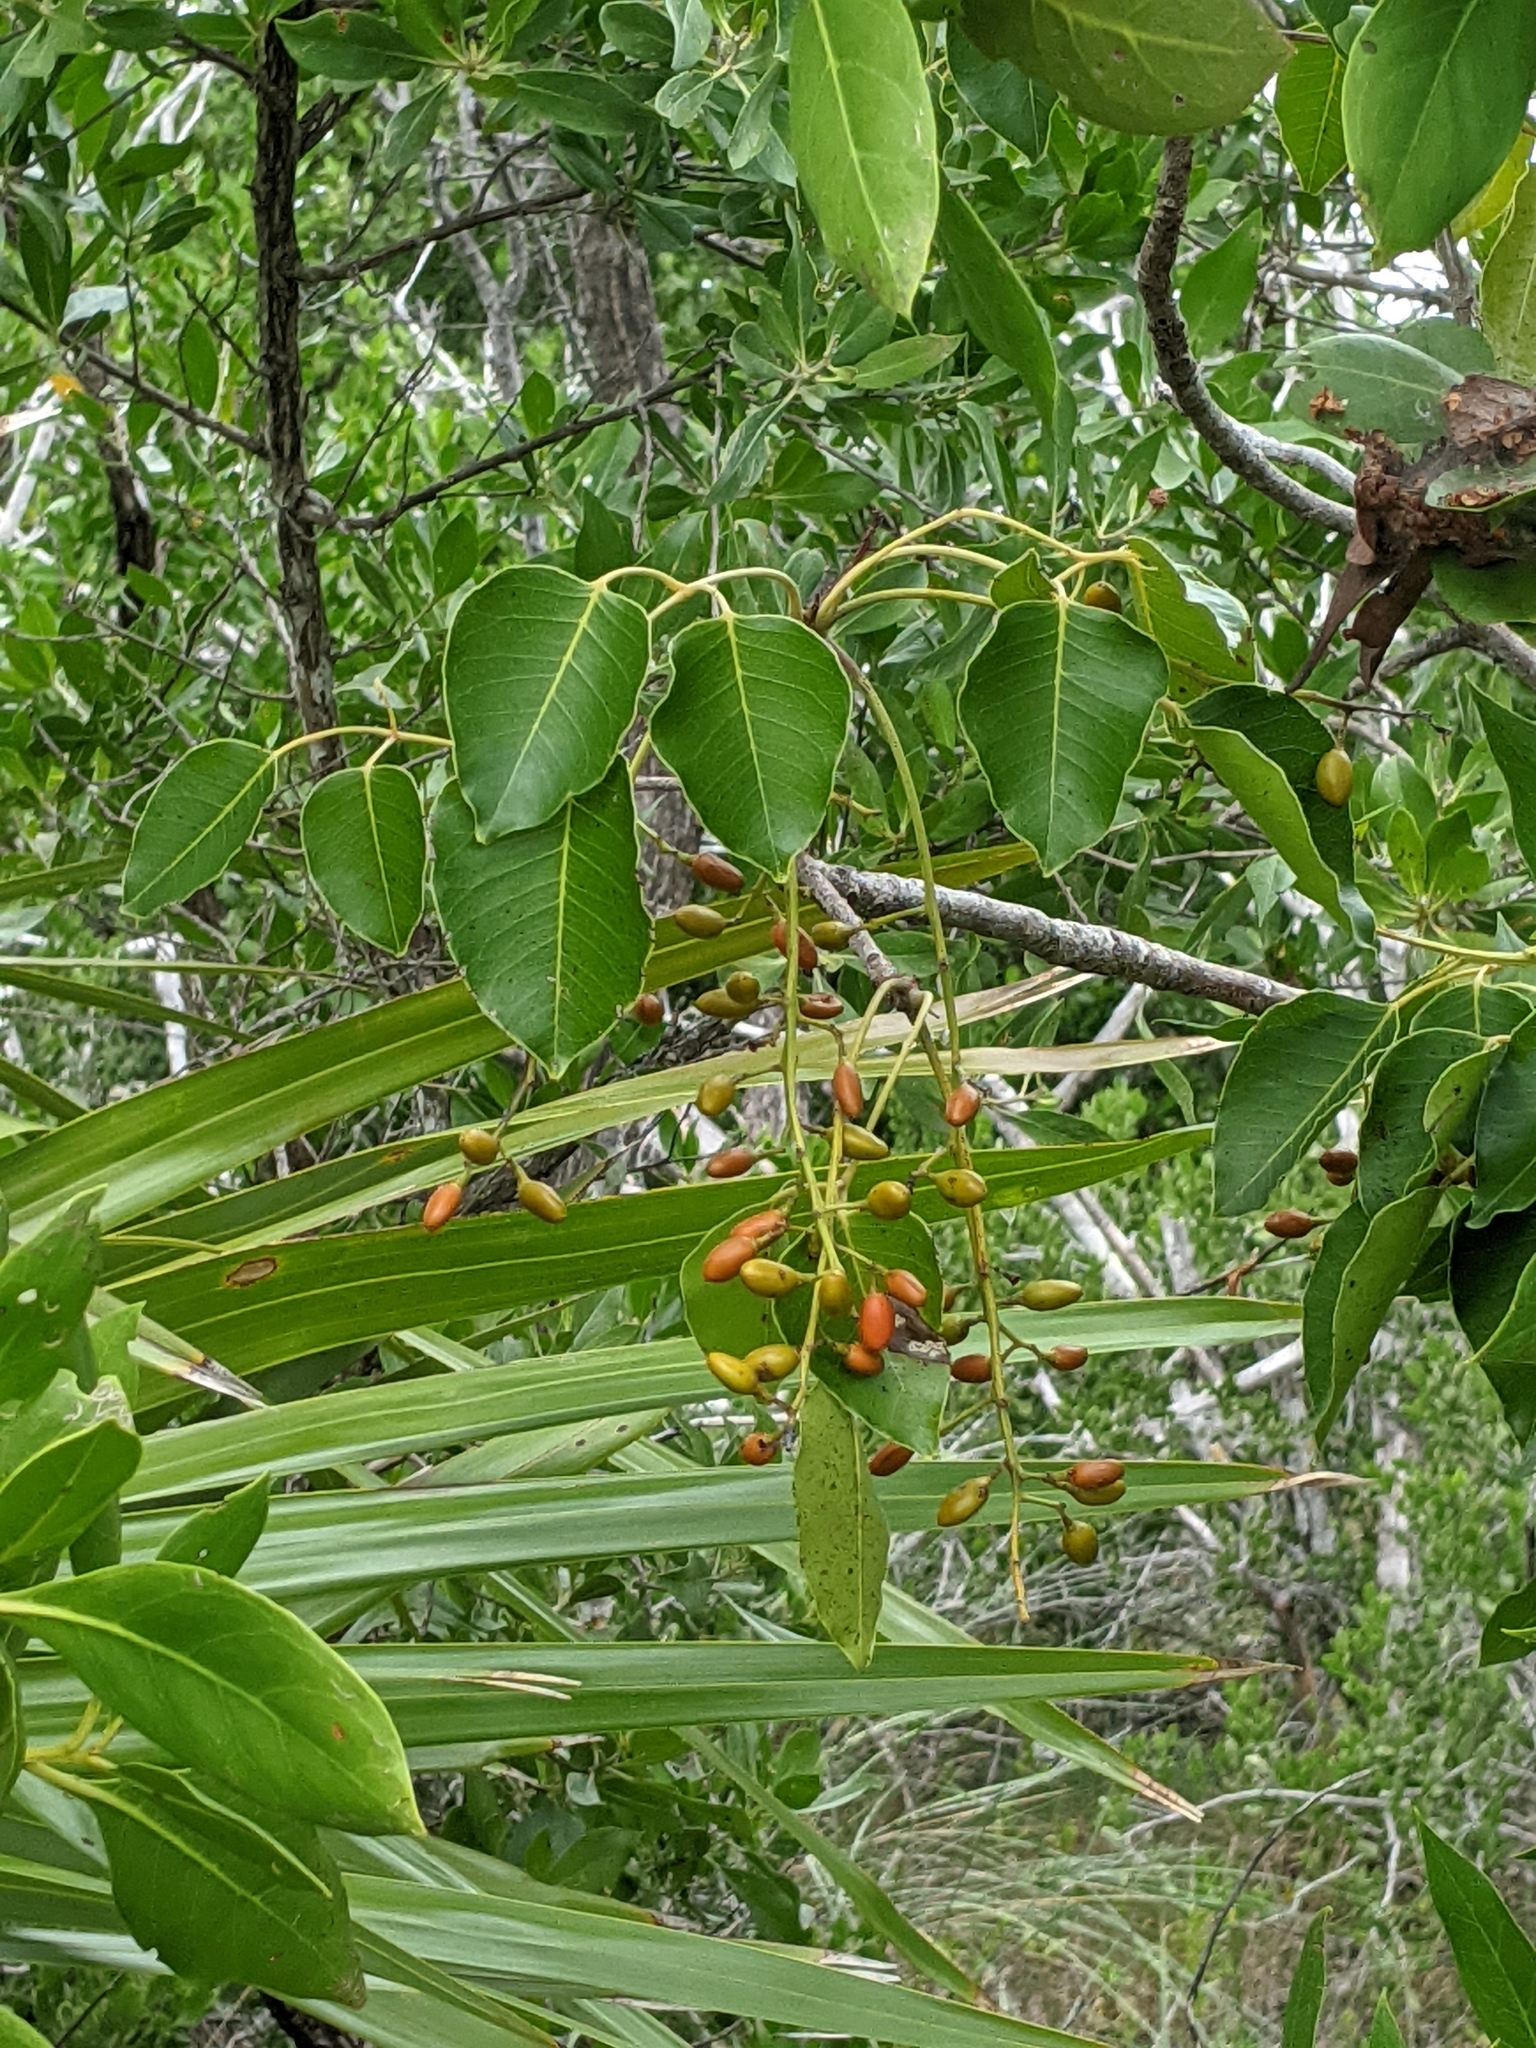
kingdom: Plantae
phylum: Tracheophyta
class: Magnoliopsida
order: Sapindales
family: Anacardiaceae
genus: Metopium
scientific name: Metopium toxiferum
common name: Florida poisontree
